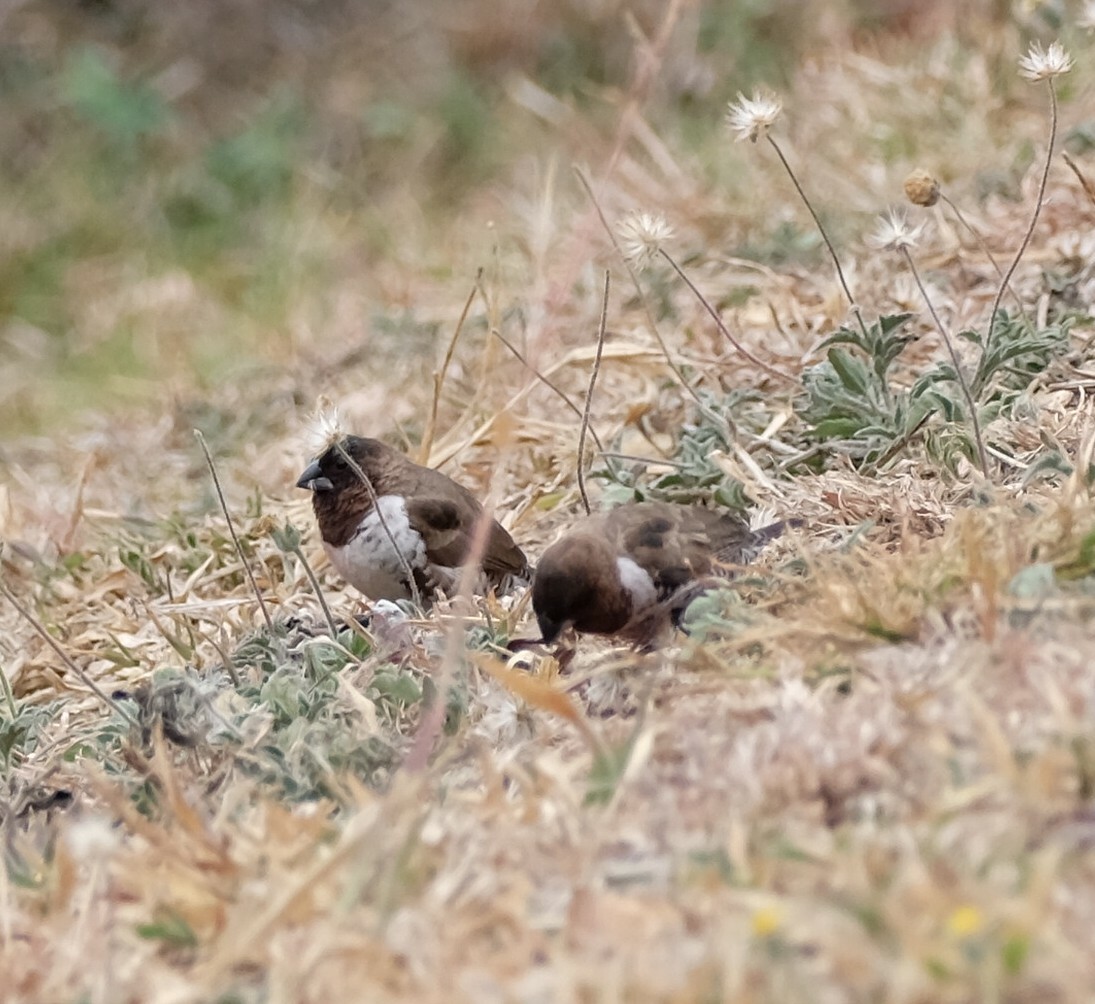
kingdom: Animalia
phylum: Chordata
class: Aves
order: Passeriformes
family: Estrildidae
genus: Lonchura
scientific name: Lonchura cucullata
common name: Bronze mannikin
